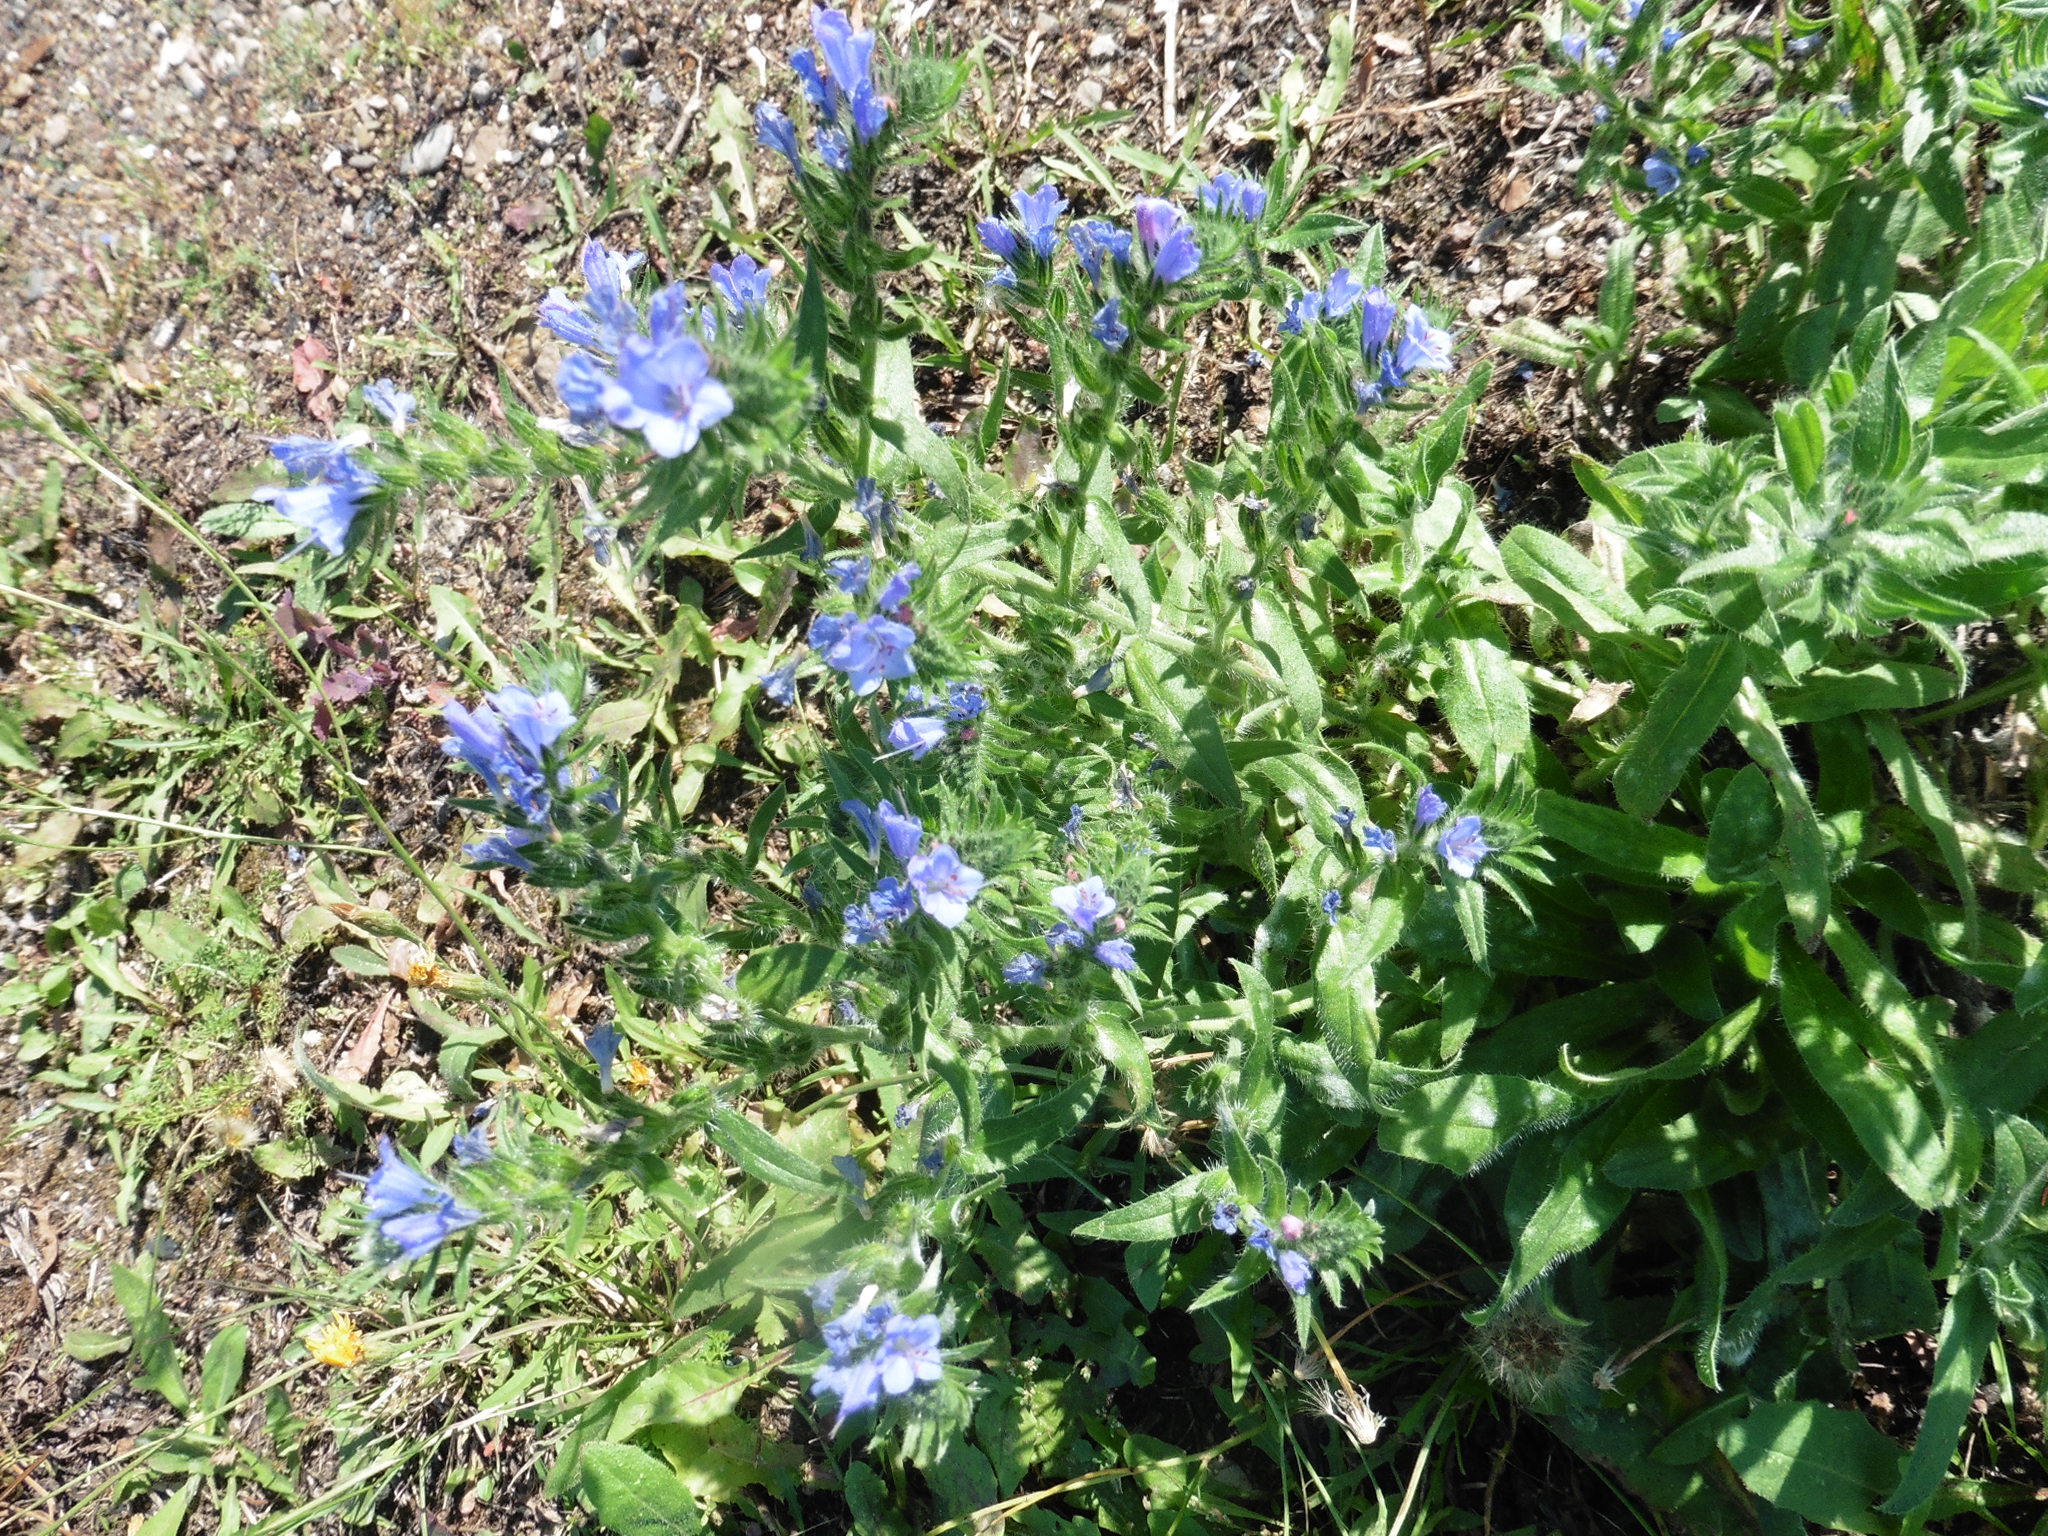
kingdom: Plantae
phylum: Tracheophyta
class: Magnoliopsida
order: Boraginales
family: Boraginaceae
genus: Echium
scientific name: Echium vulgare
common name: Common viper's bugloss
